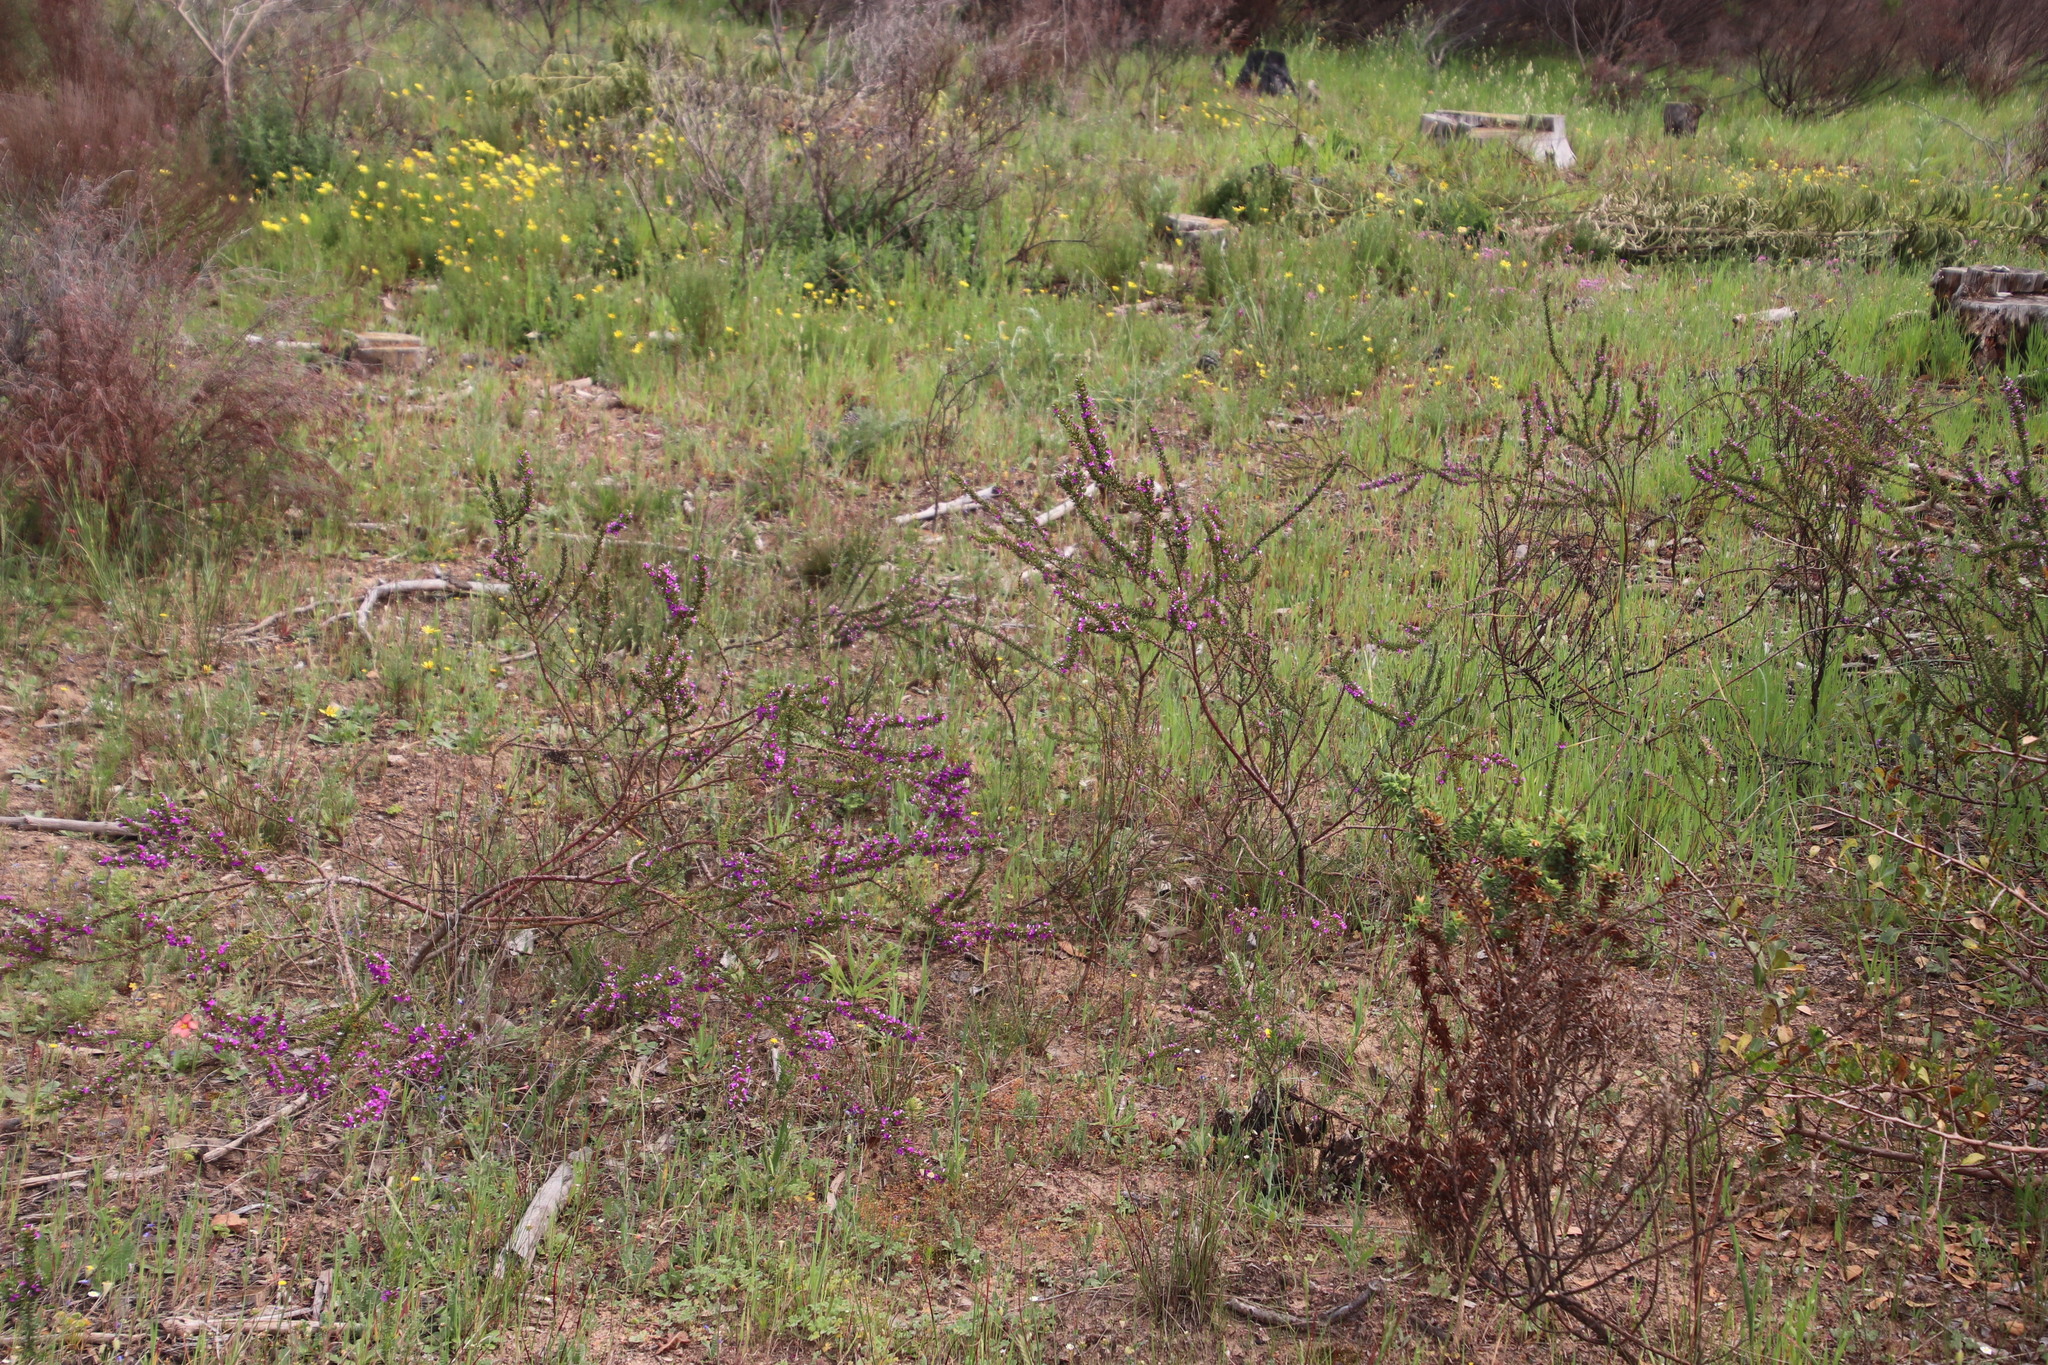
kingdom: Plantae
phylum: Tracheophyta
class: Magnoliopsida
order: Fabales
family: Polygalaceae
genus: Muraltia
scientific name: Muraltia heisteria
